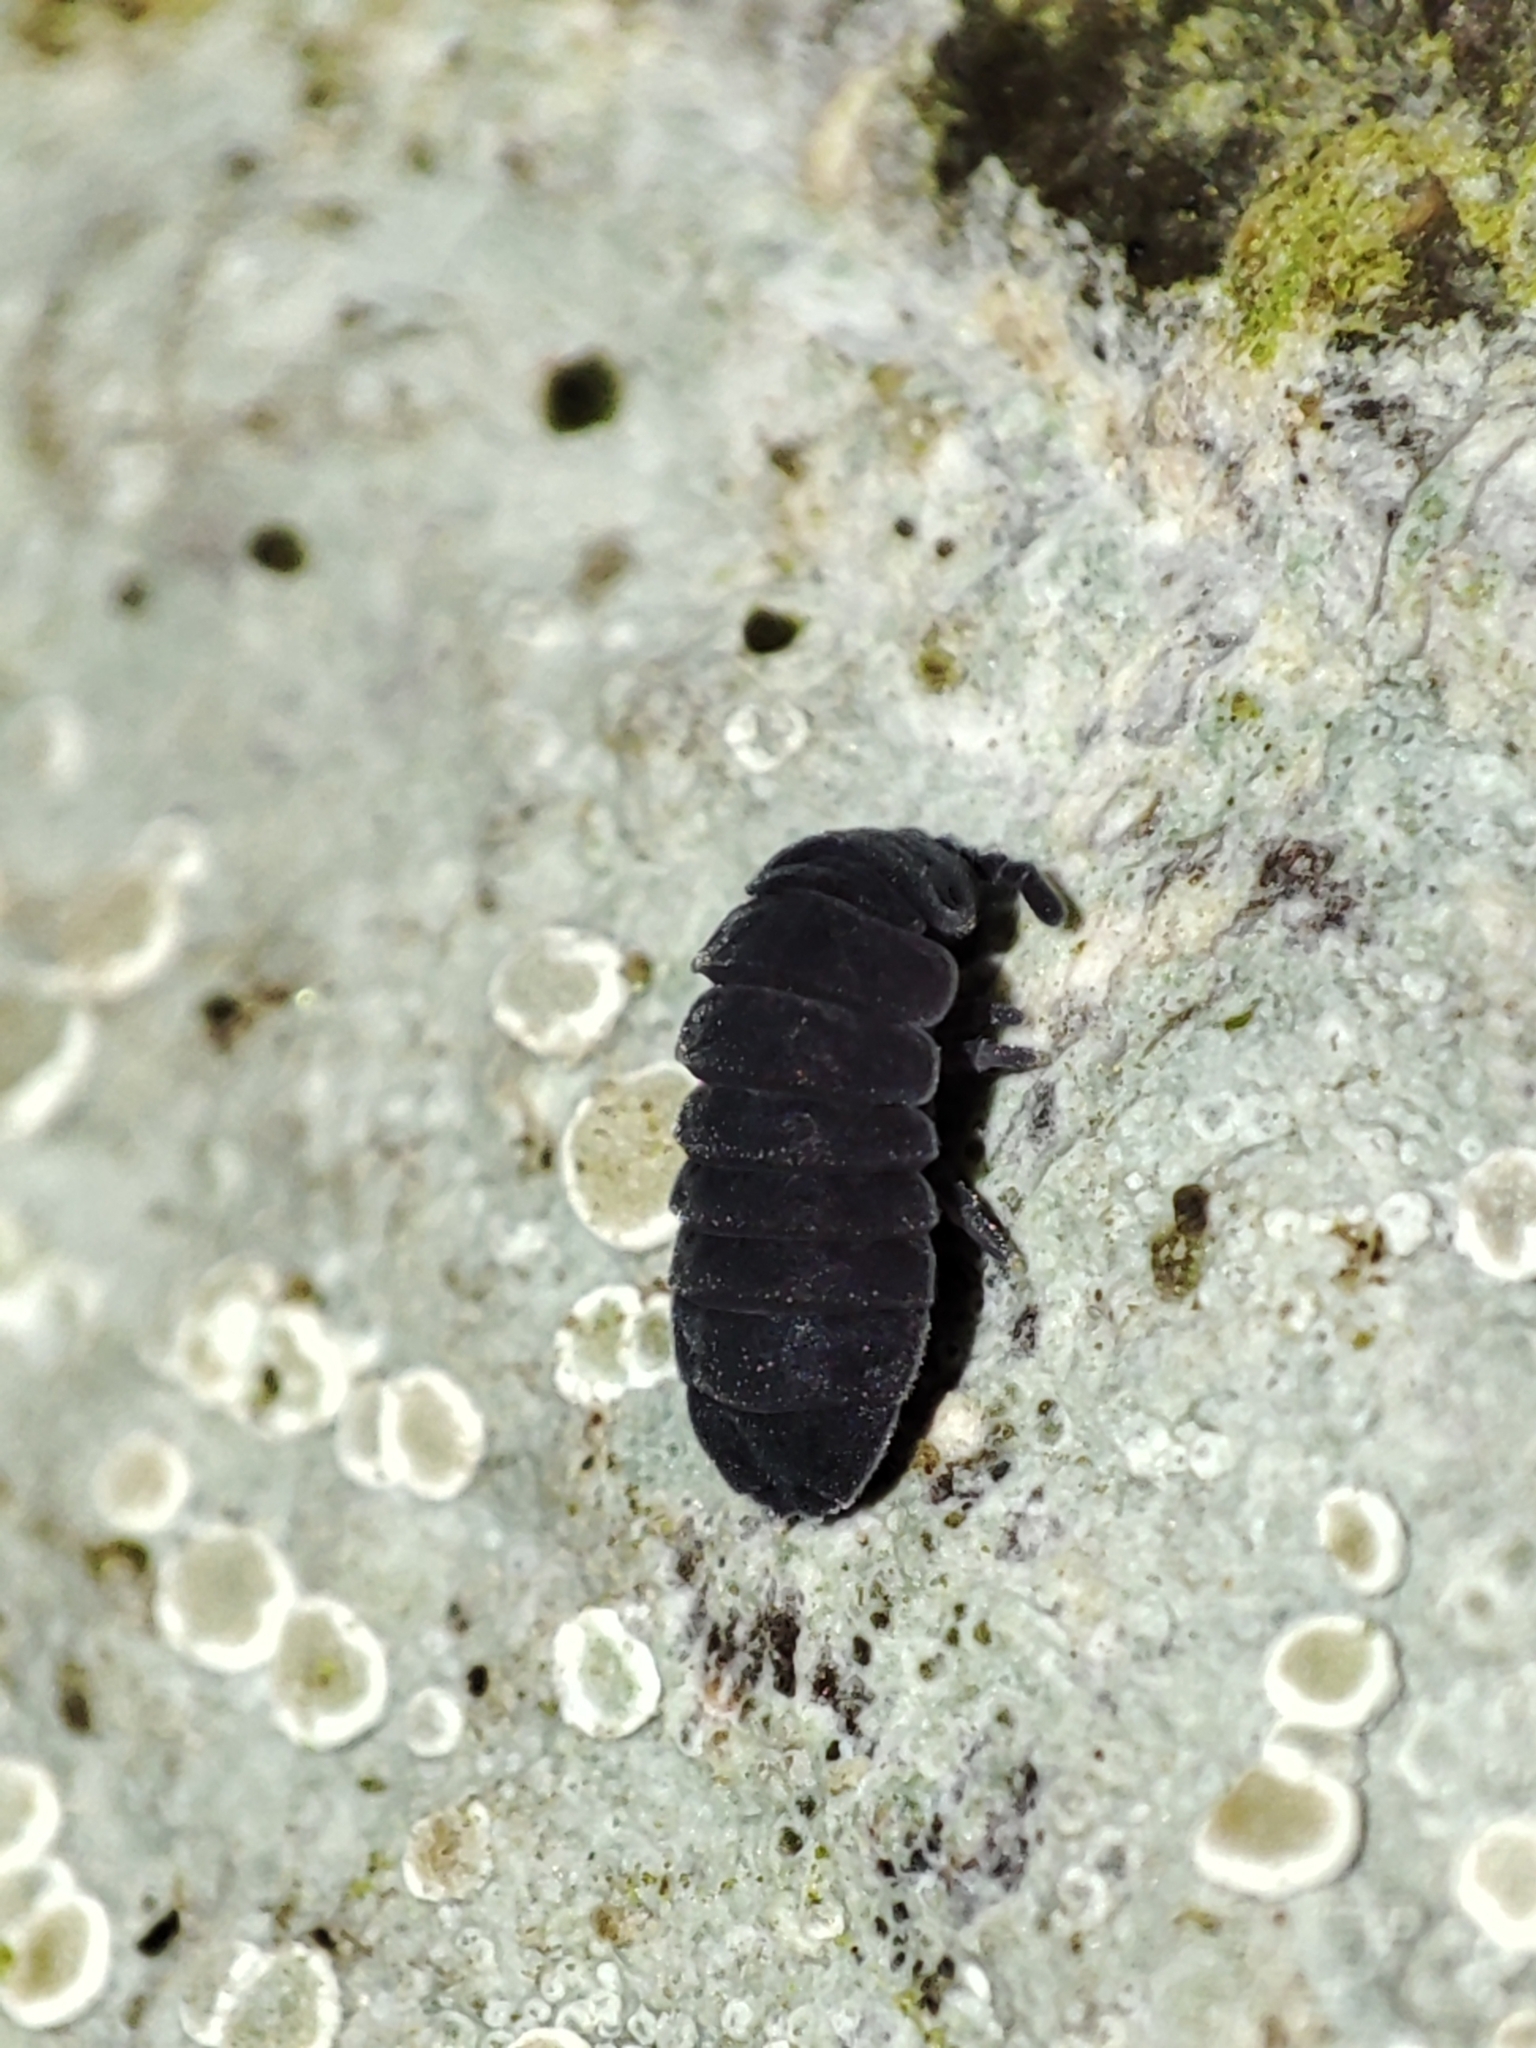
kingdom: Animalia
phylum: Arthropoda
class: Collembola
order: Poduromorpha
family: Onychiuridae
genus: Tetrodontophora
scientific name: Tetrodontophora bielanensis
